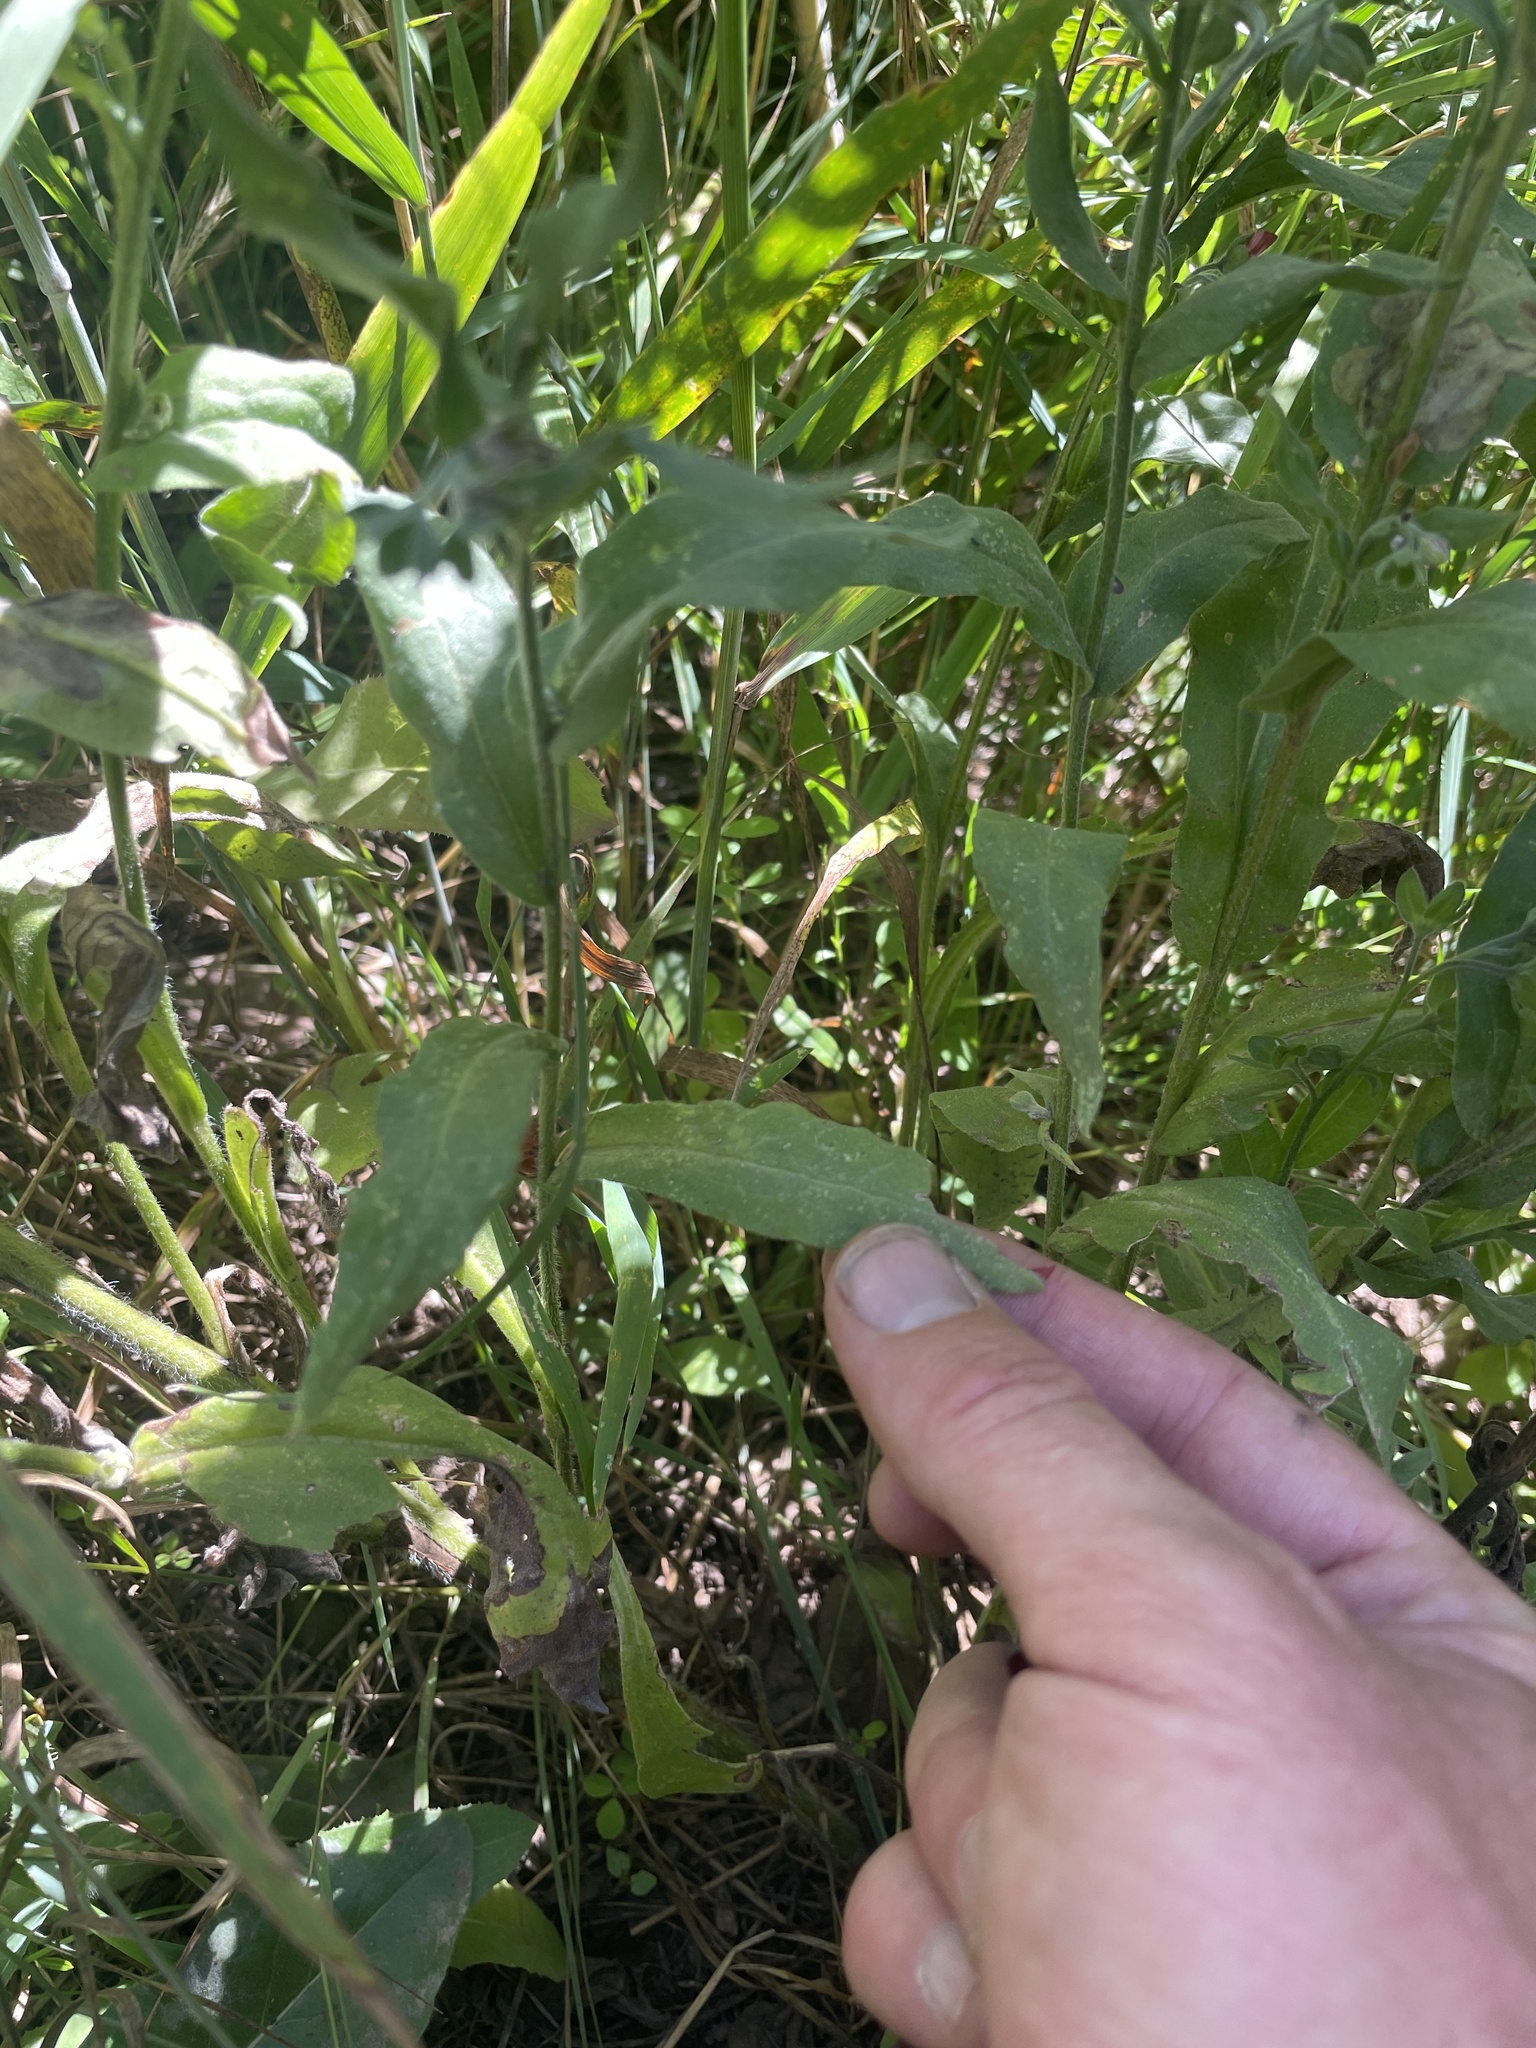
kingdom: Plantae
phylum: Tracheophyta
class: Magnoliopsida
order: Boraginales
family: Boraginaceae
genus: Cynoglossum
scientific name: Cynoglossum officinale
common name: Hound's-tongue
